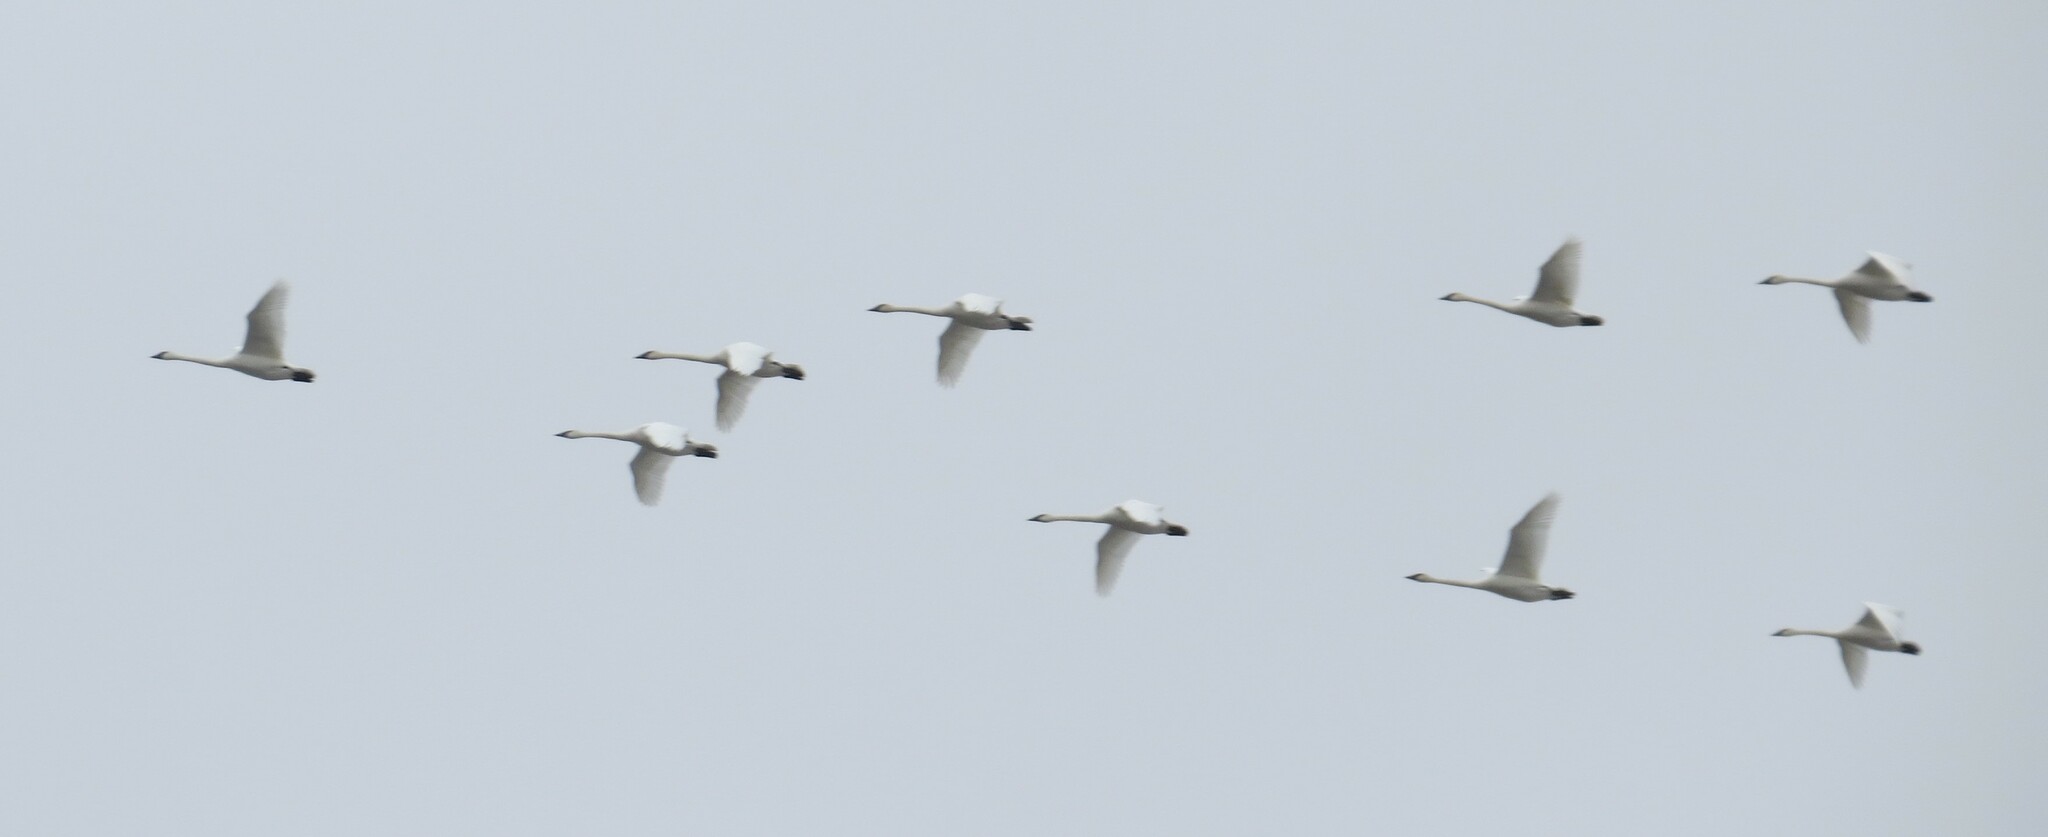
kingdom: Animalia
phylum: Chordata
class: Aves
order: Anseriformes
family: Anatidae
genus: Cygnus
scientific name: Cygnus buccinator
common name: Trumpeter swan
